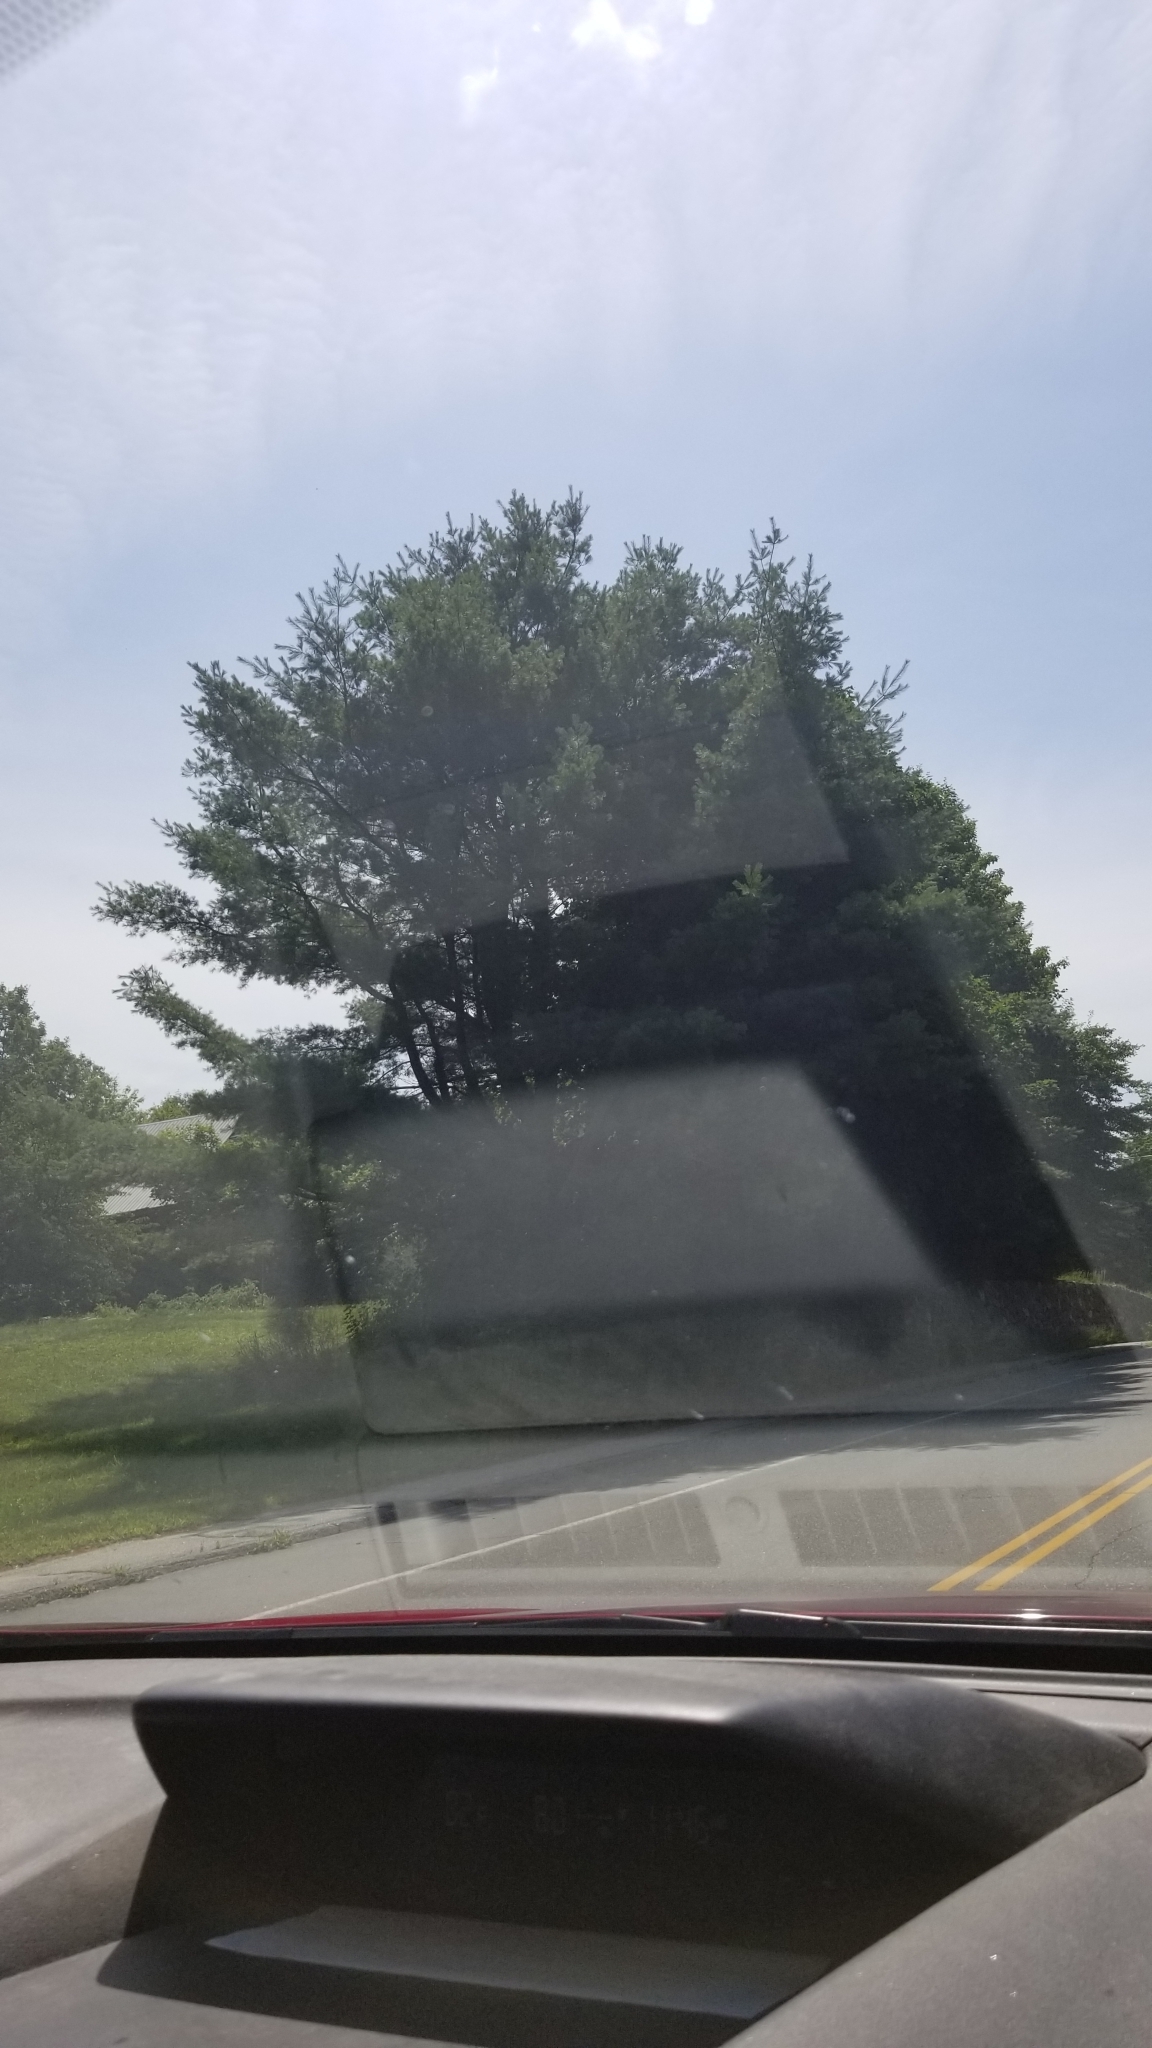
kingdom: Plantae
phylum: Tracheophyta
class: Pinopsida
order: Pinales
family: Pinaceae
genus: Pinus
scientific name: Pinus strobus
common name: Weymouth pine
